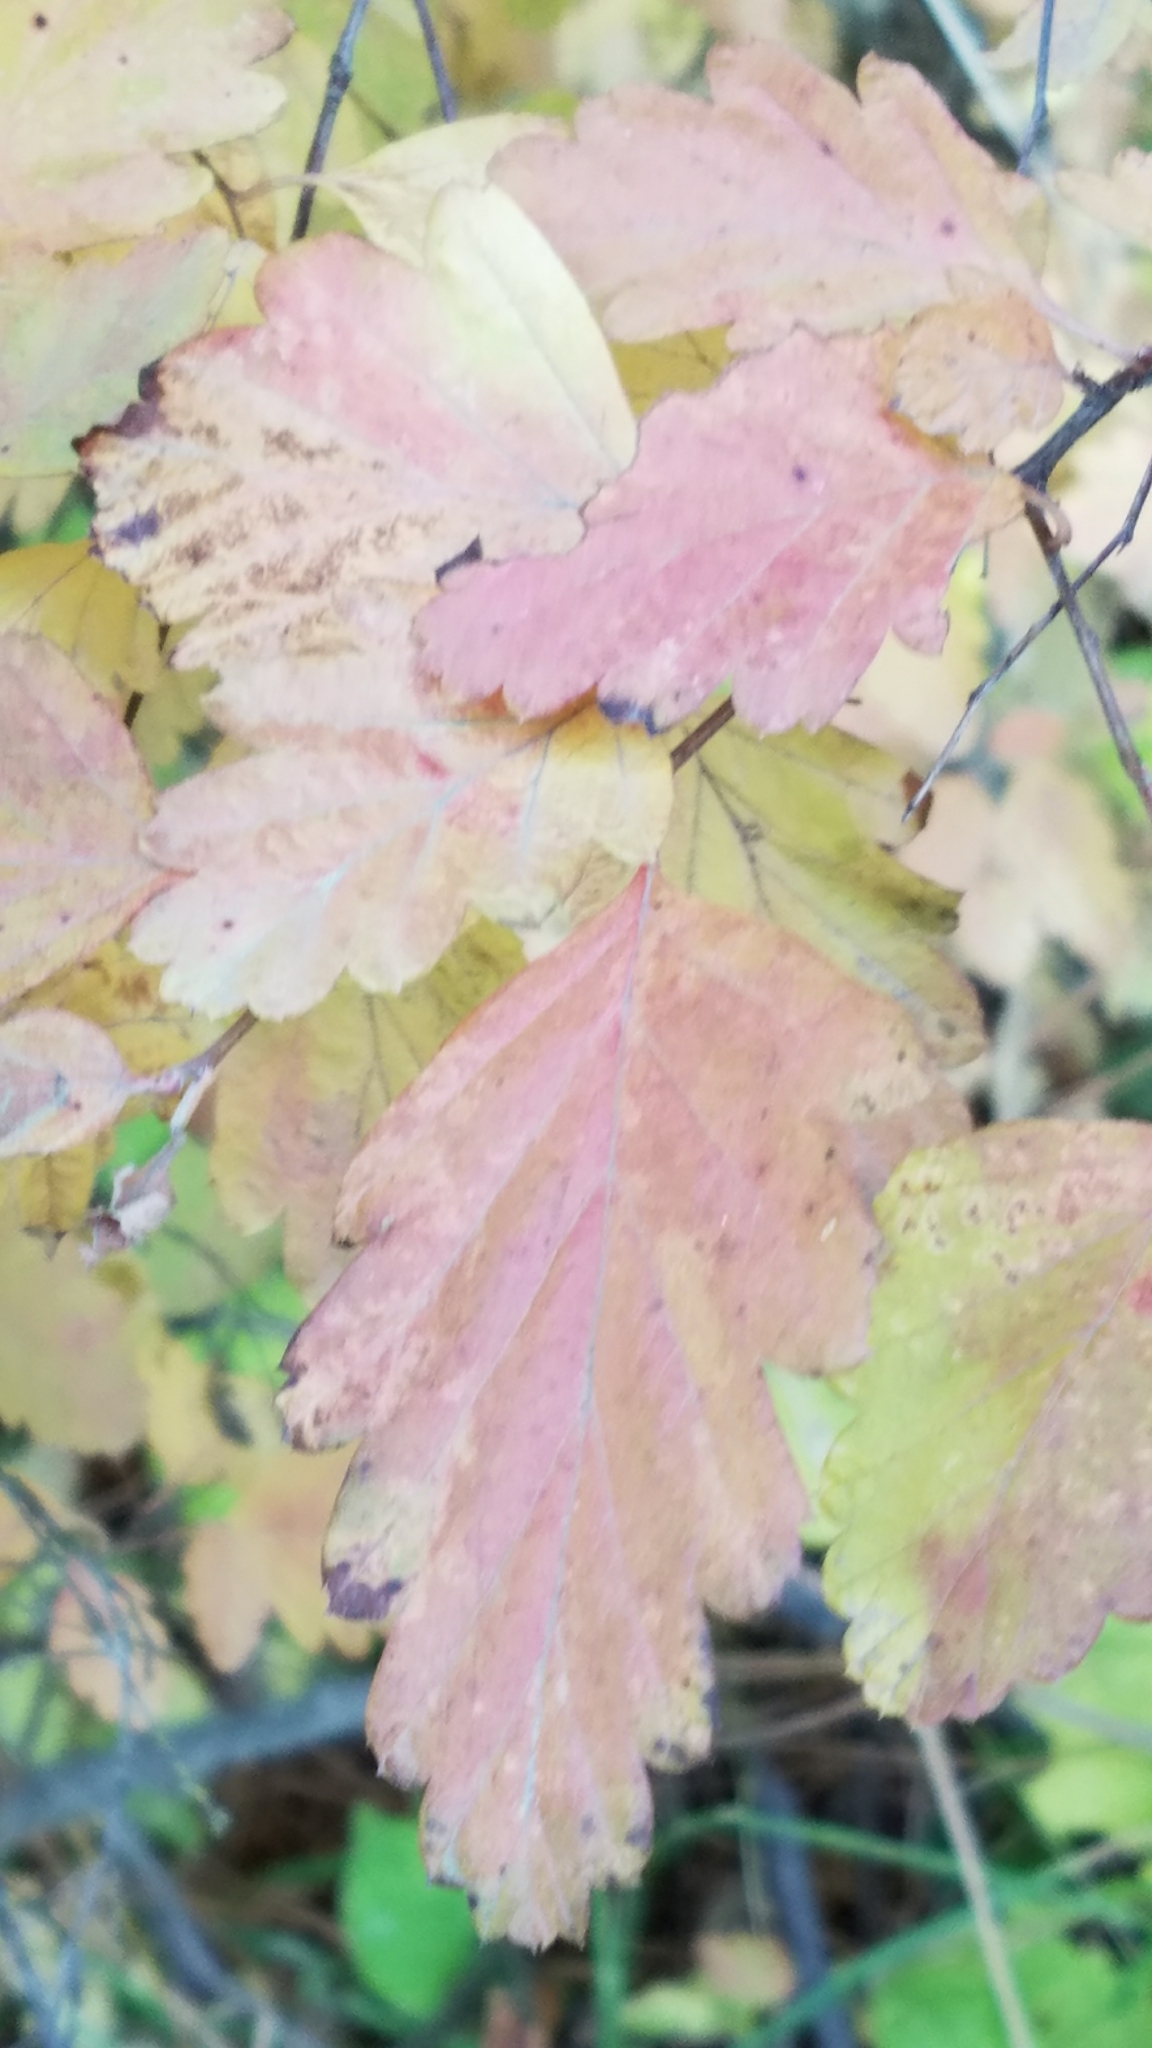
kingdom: Plantae
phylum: Tracheophyta
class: Magnoliopsida
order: Rosales
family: Rosaceae
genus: Holodiscus
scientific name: Holodiscus discolor
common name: Oceanspray
